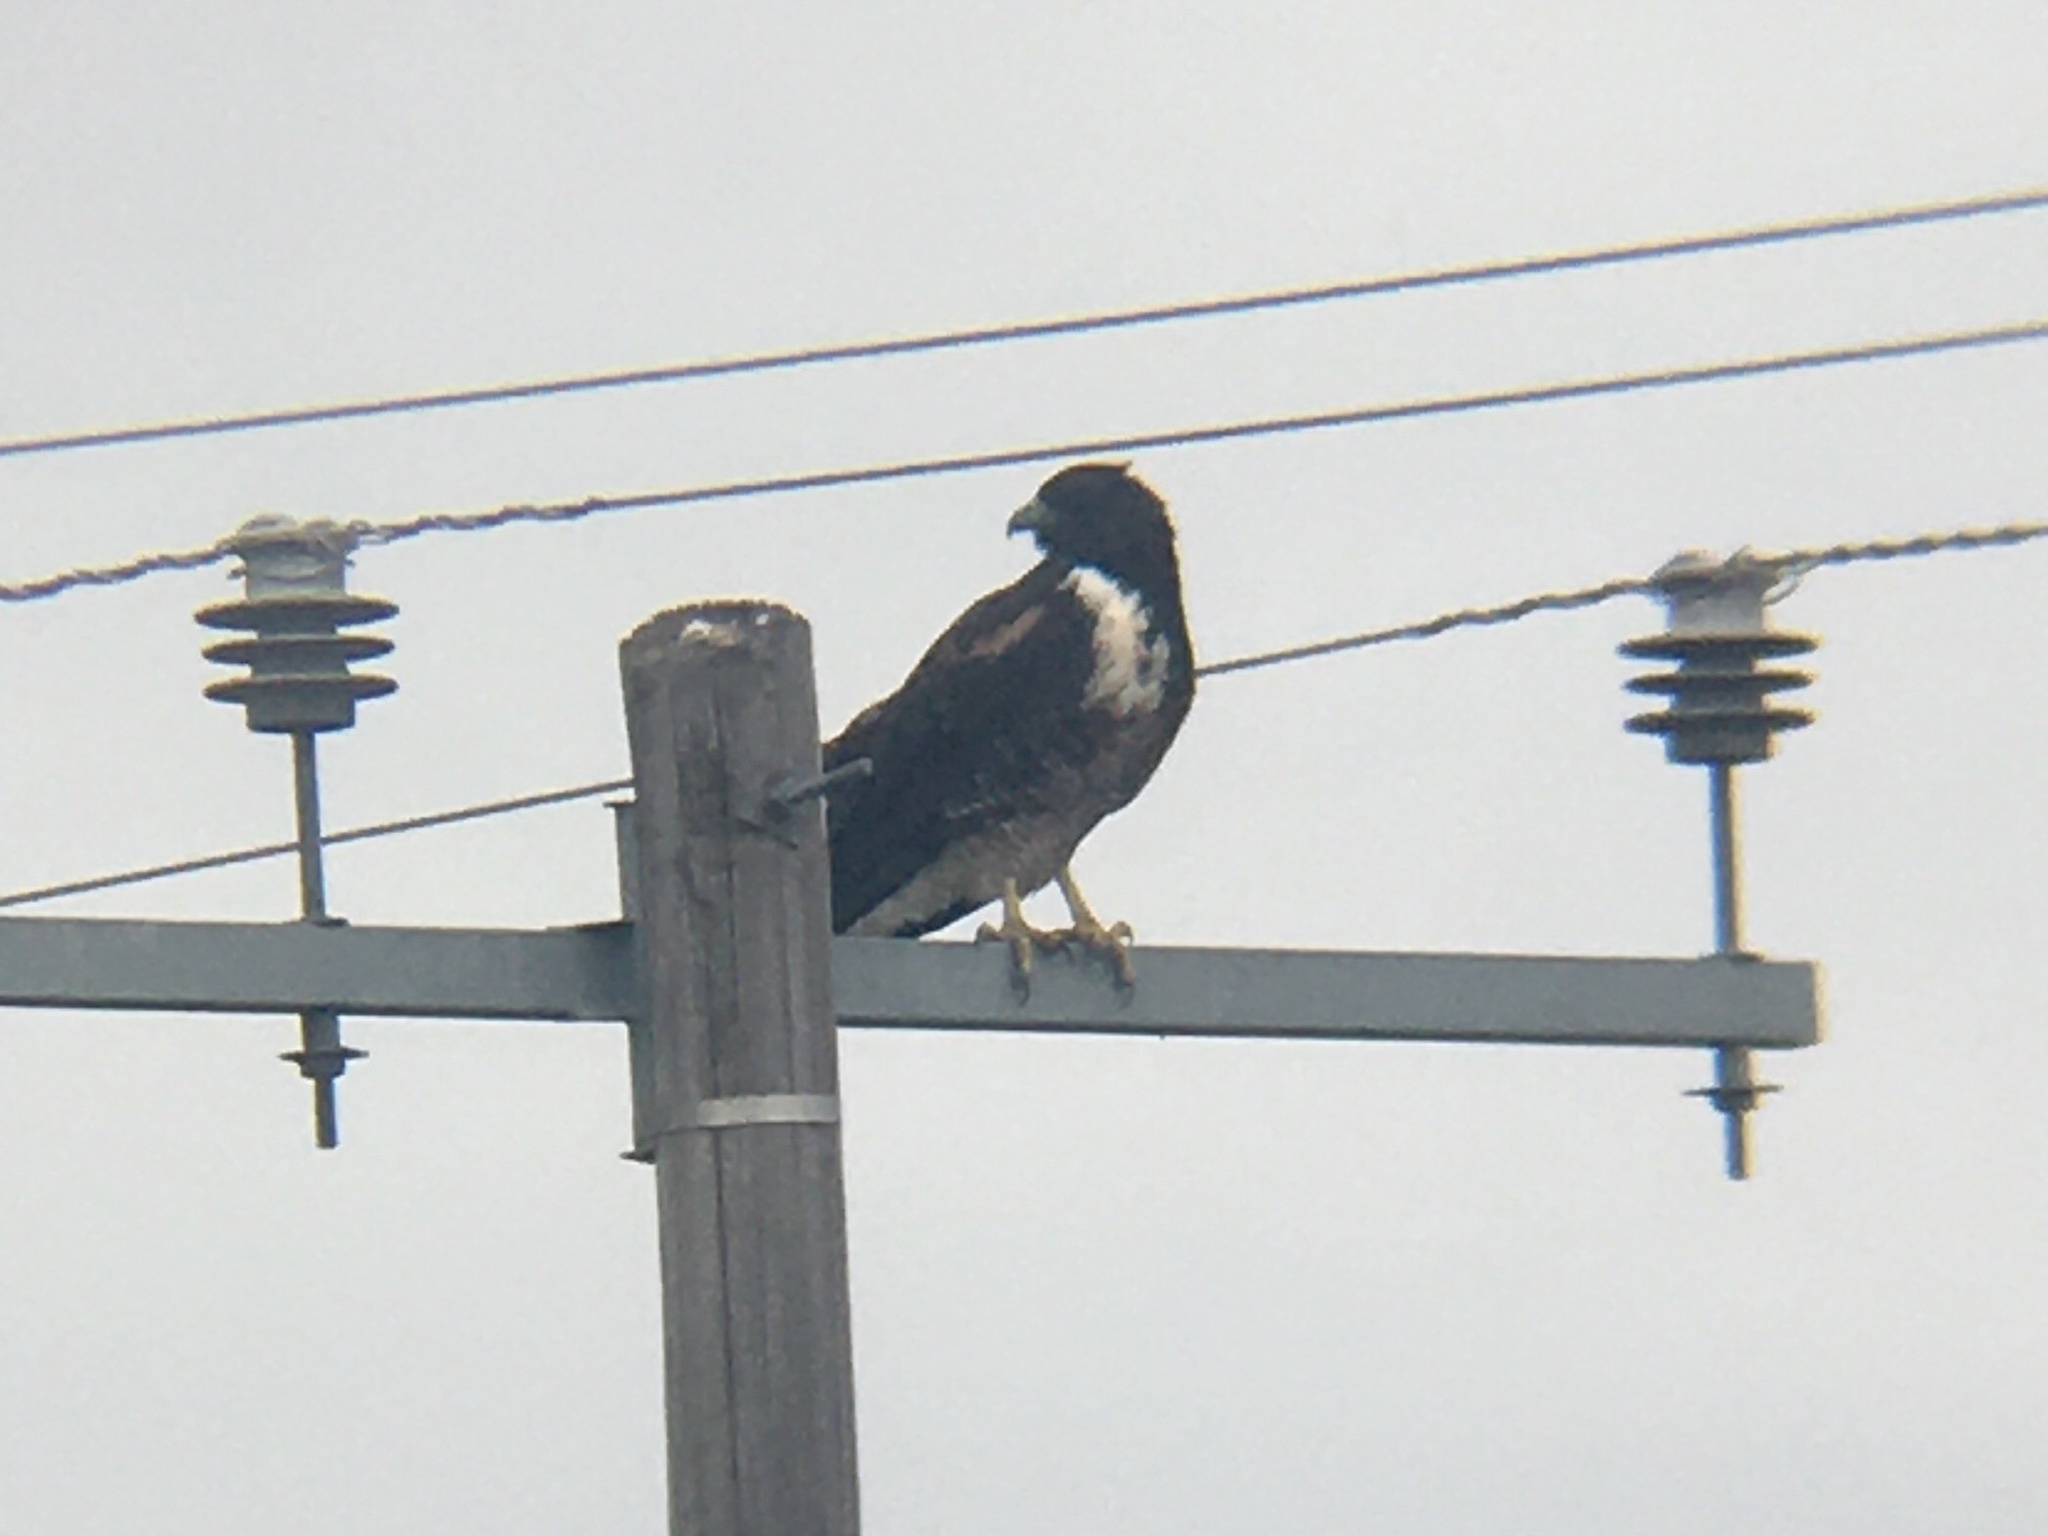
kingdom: Animalia
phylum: Chordata
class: Aves
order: Accipitriformes
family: Accipitridae
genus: Buteo
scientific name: Buteo albicaudatus
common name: White-tailed hawk
